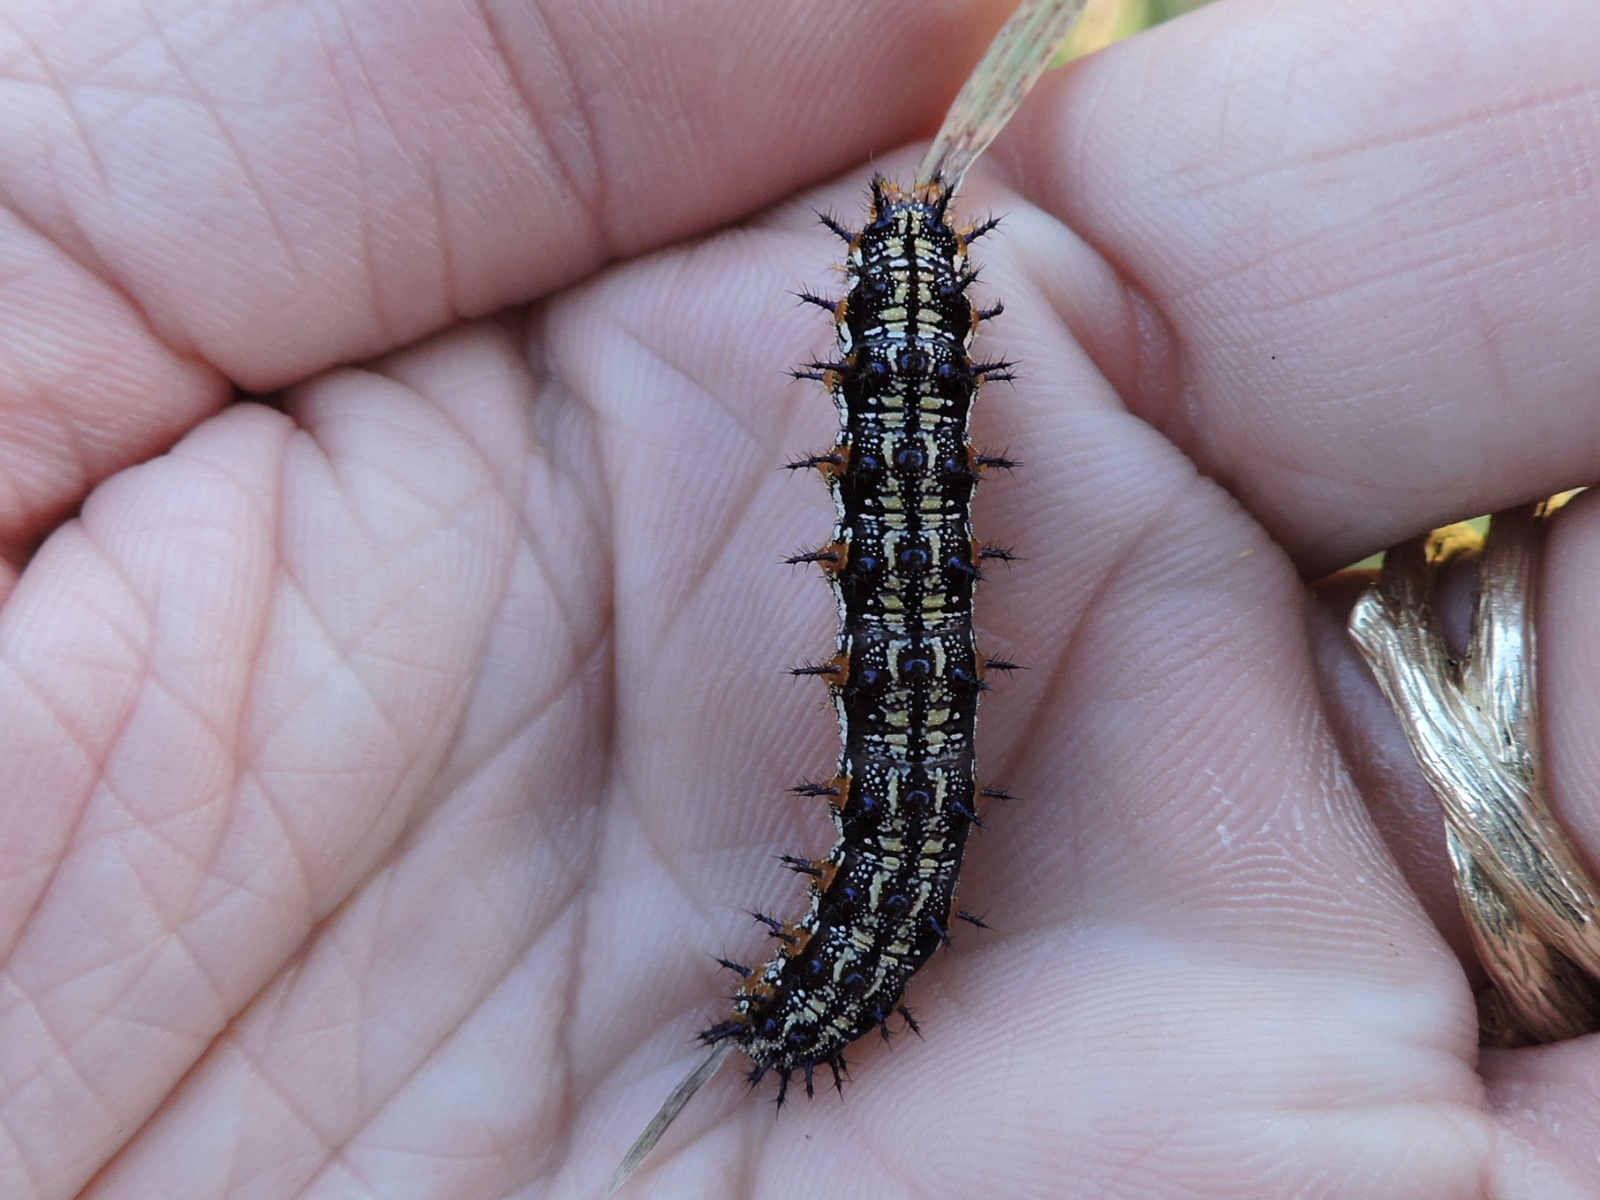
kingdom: Animalia
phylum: Arthropoda
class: Insecta
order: Lepidoptera
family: Nymphalidae
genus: Junonia
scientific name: Junonia coenia
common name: Common buckeye
